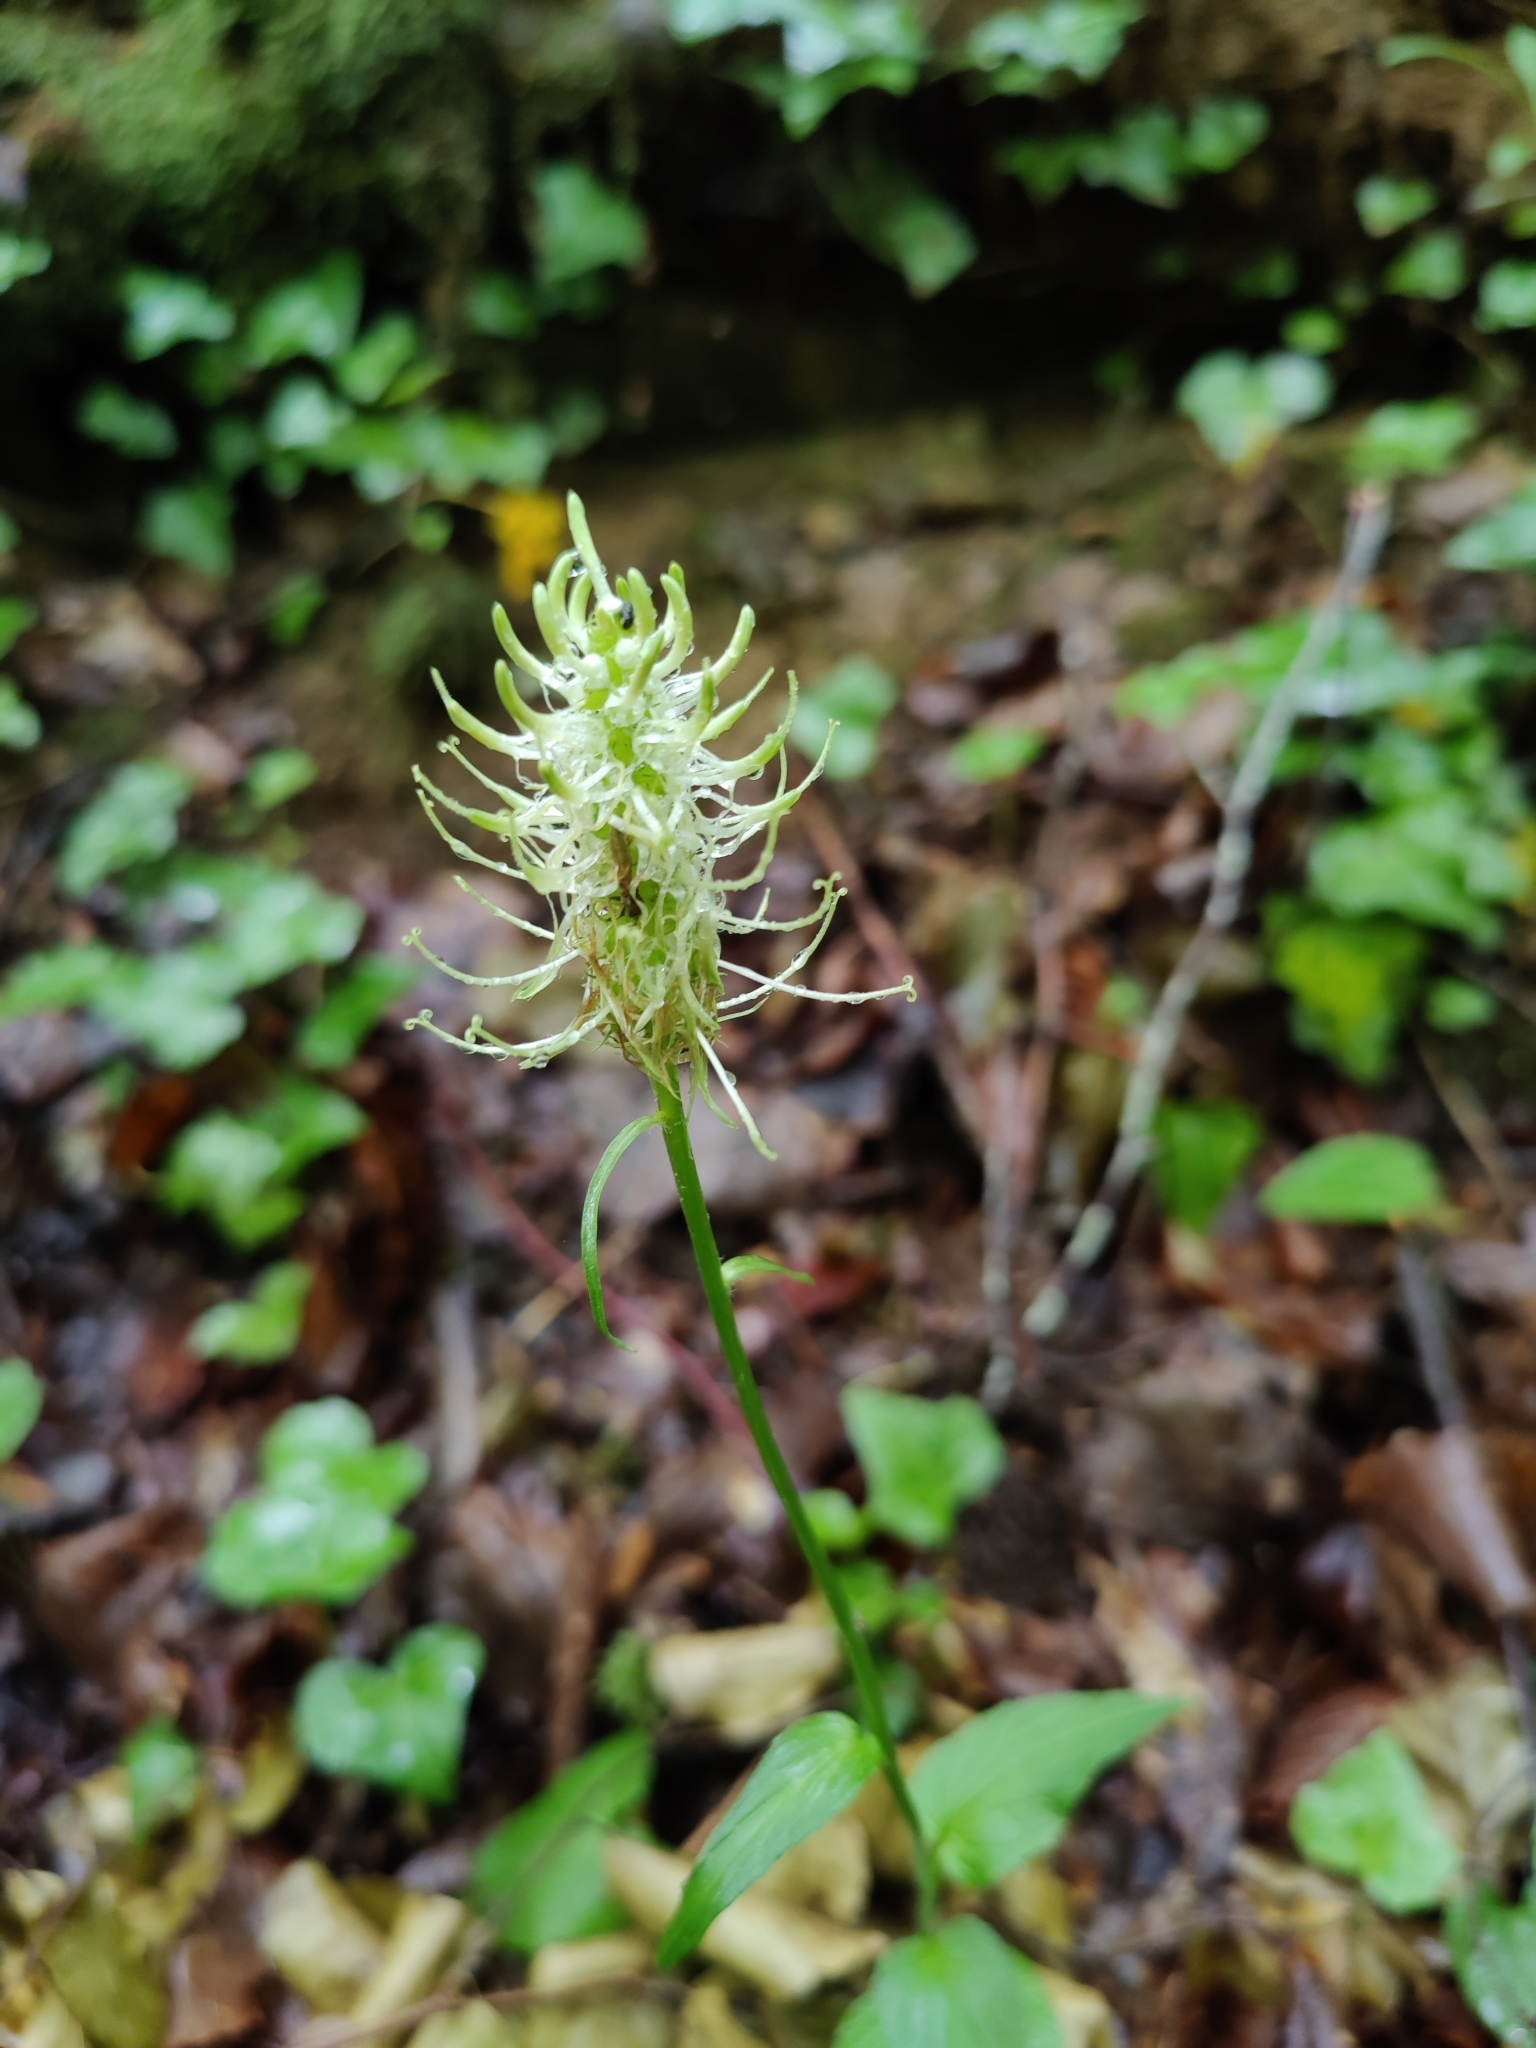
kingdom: Plantae
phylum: Tracheophyta
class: Magnoliopsida
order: Asterales
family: Campanulaceae
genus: Phyteuma
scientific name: Phyteuma spicatum
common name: Spiked rampion
